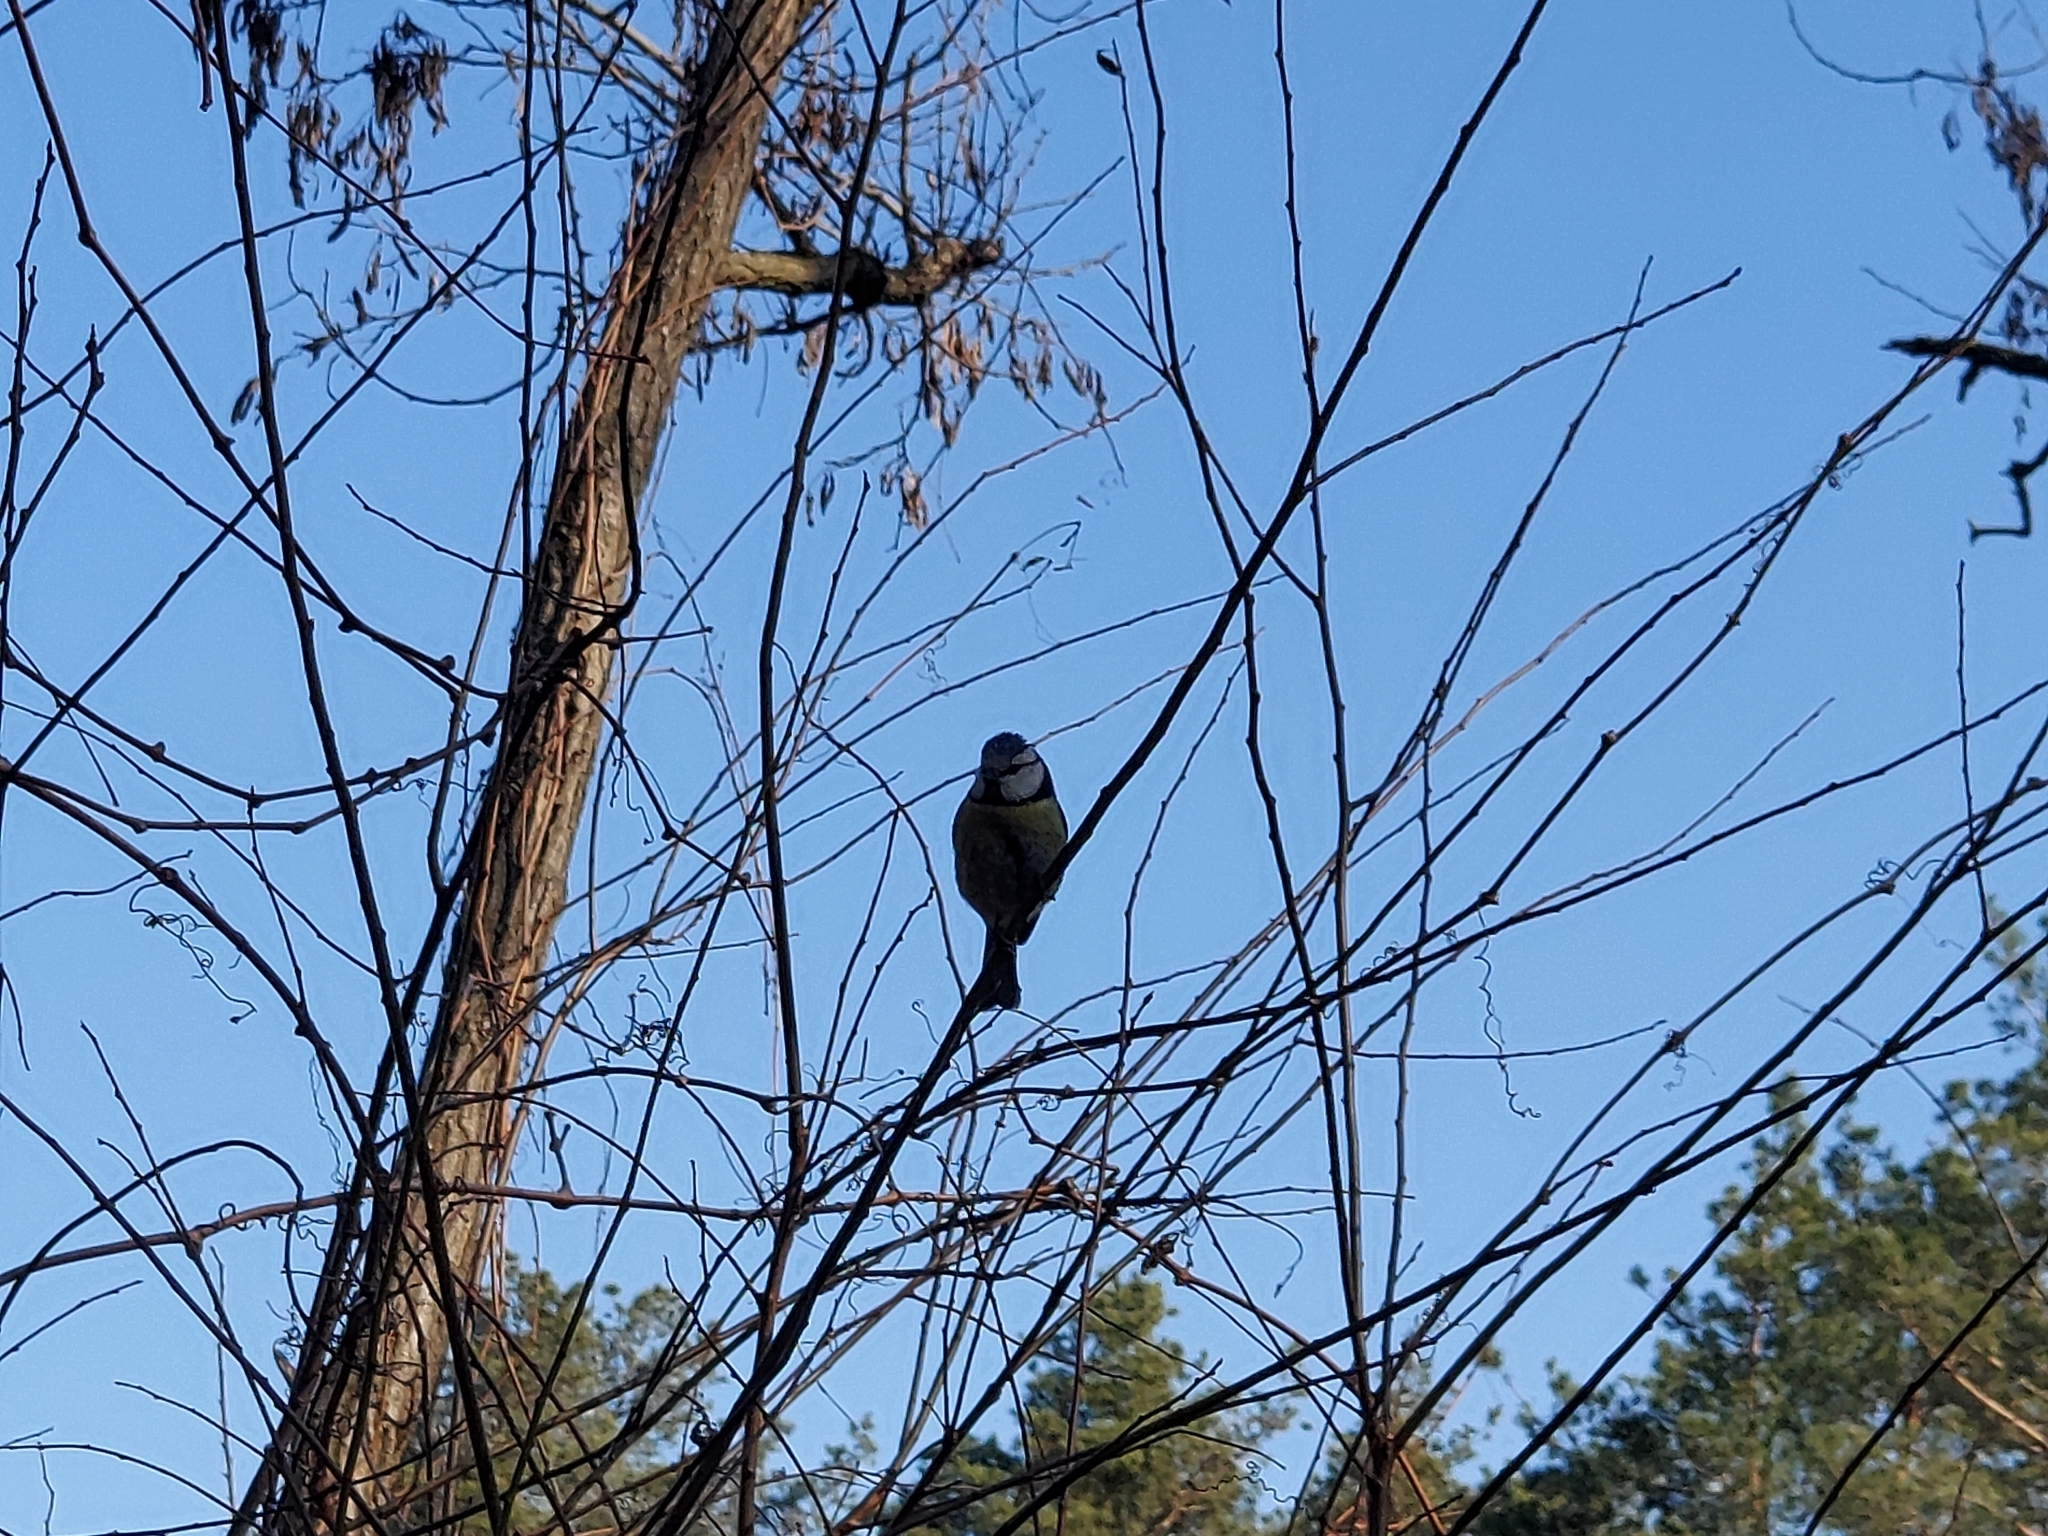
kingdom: Animalia
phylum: Chordata
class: Aves
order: Passeriformes
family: Paridae
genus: Cyanistes
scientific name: Cyanistes caeruleus
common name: Eurasian blue tit
